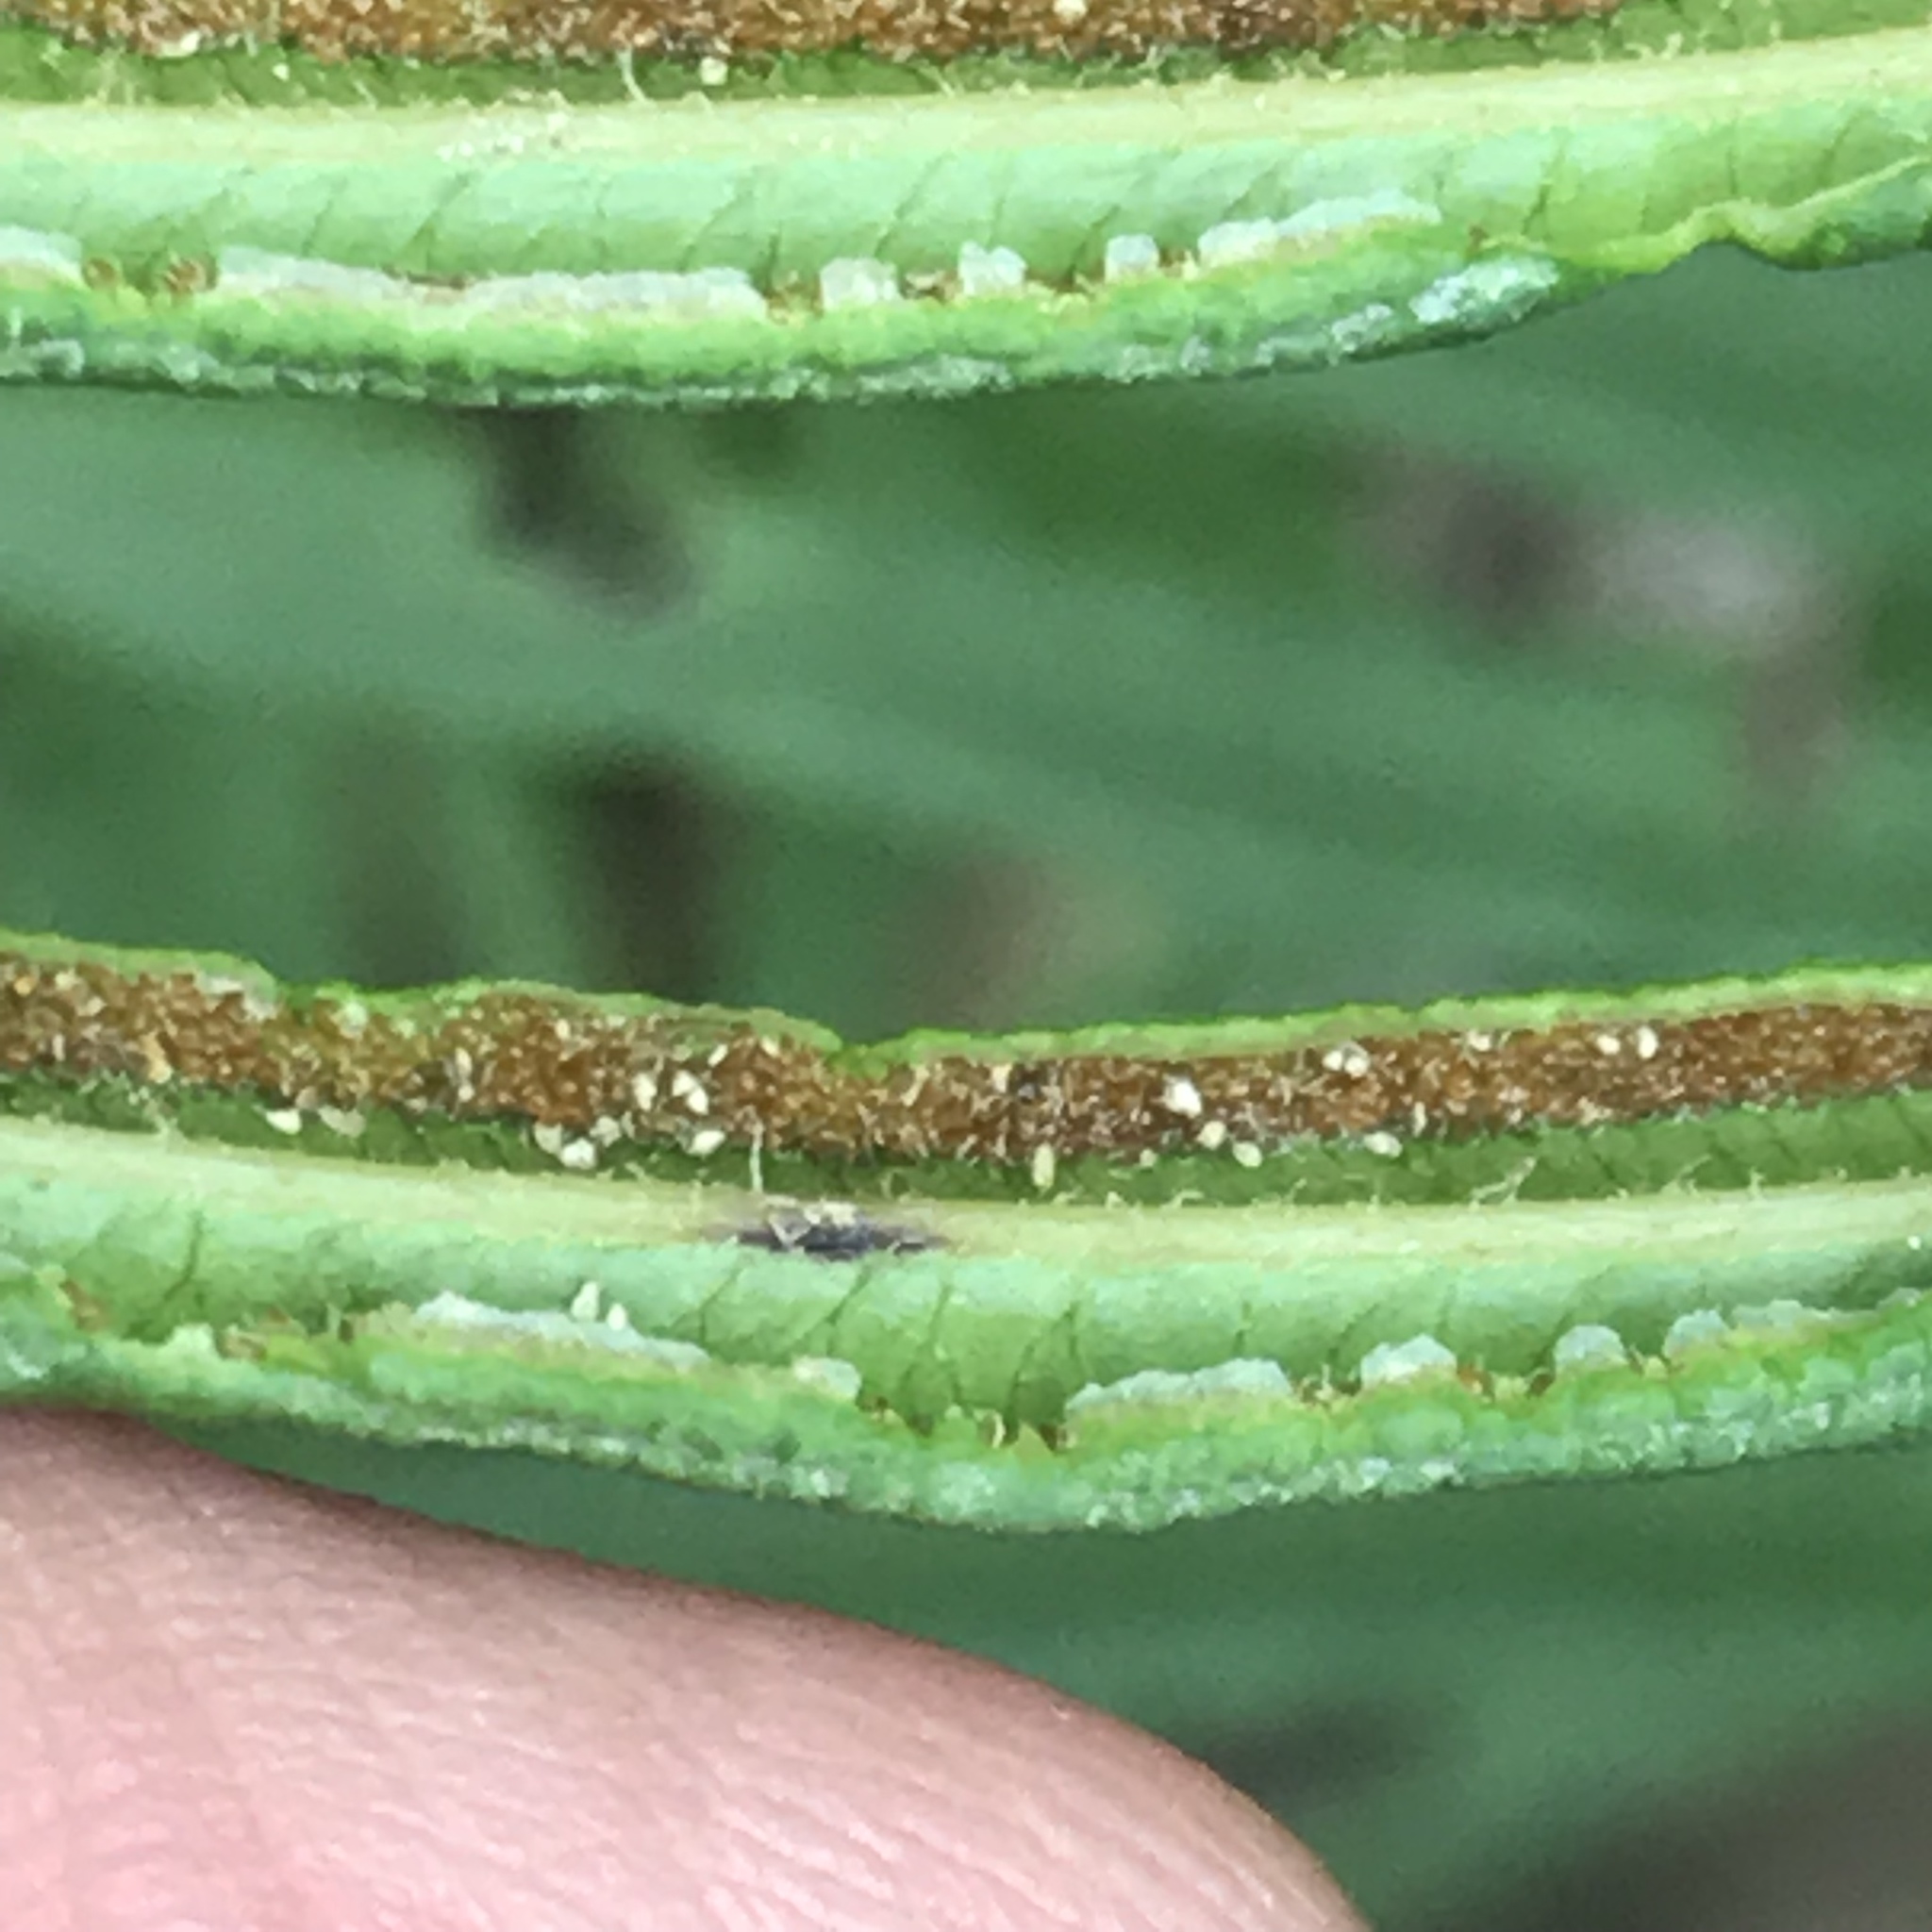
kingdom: Plantae
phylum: Tracheophyta
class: Polypodiopsida
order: Polypodiales
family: Pteridaceae
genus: Pteris
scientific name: Pteris vittata
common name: Ladder brake
